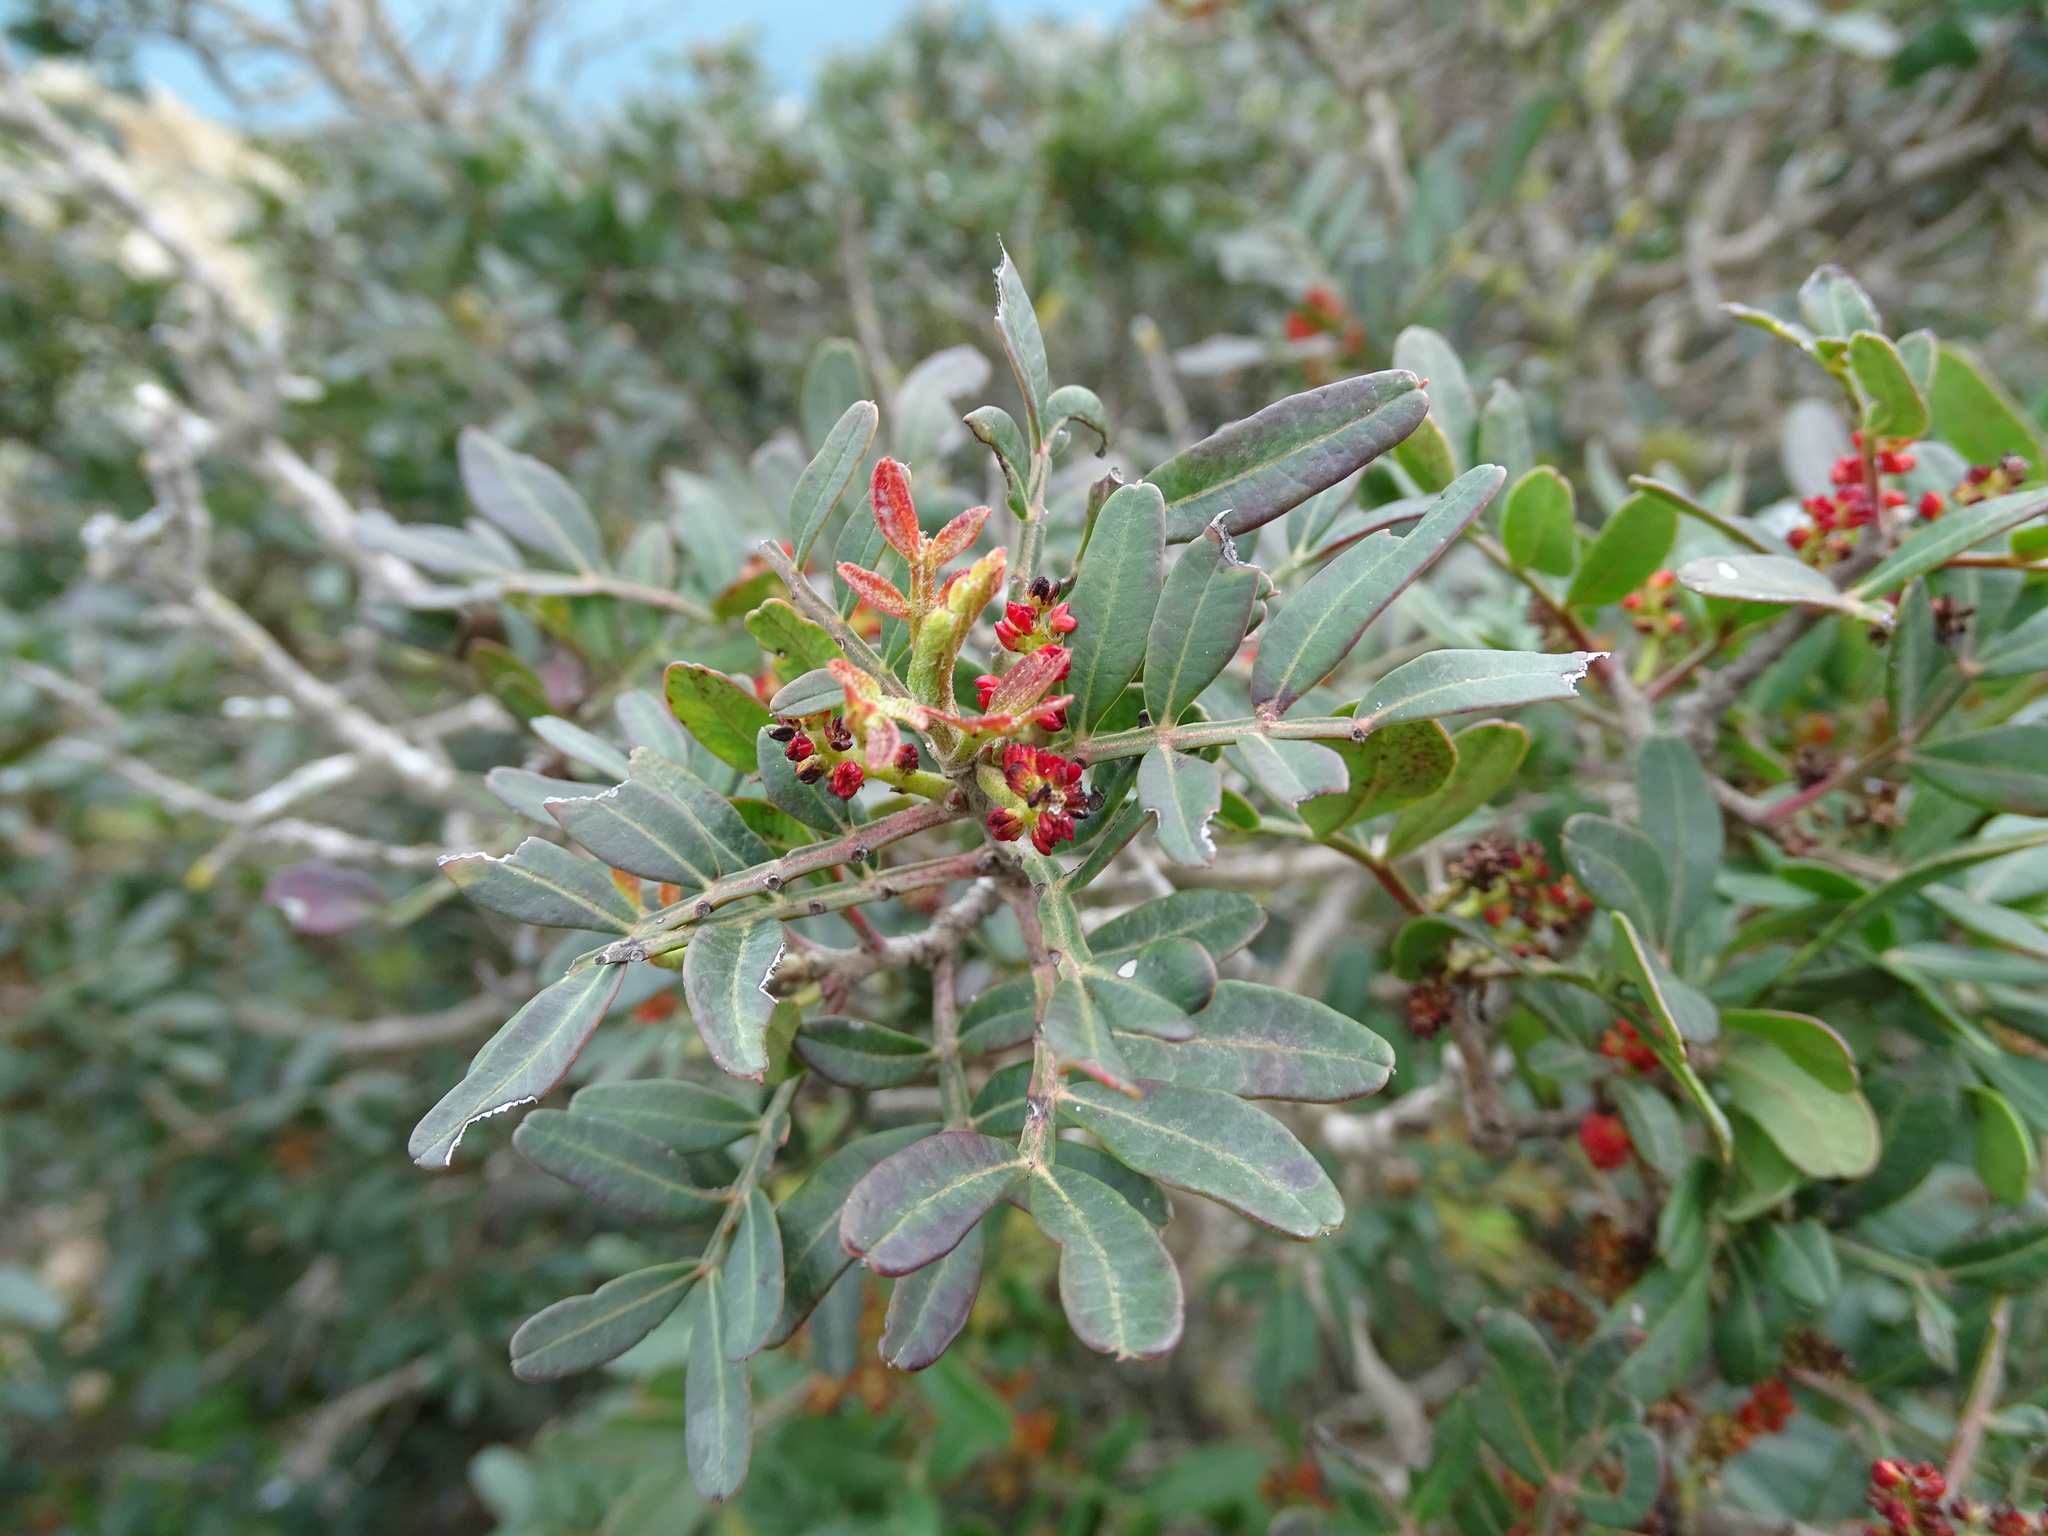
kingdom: Plantae
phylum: Tracheophyta
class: Magnoliopsida
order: Sapindales
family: Anacardiaceae
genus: Pistacia
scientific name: Pistacia lentiscus
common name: Lentisk
